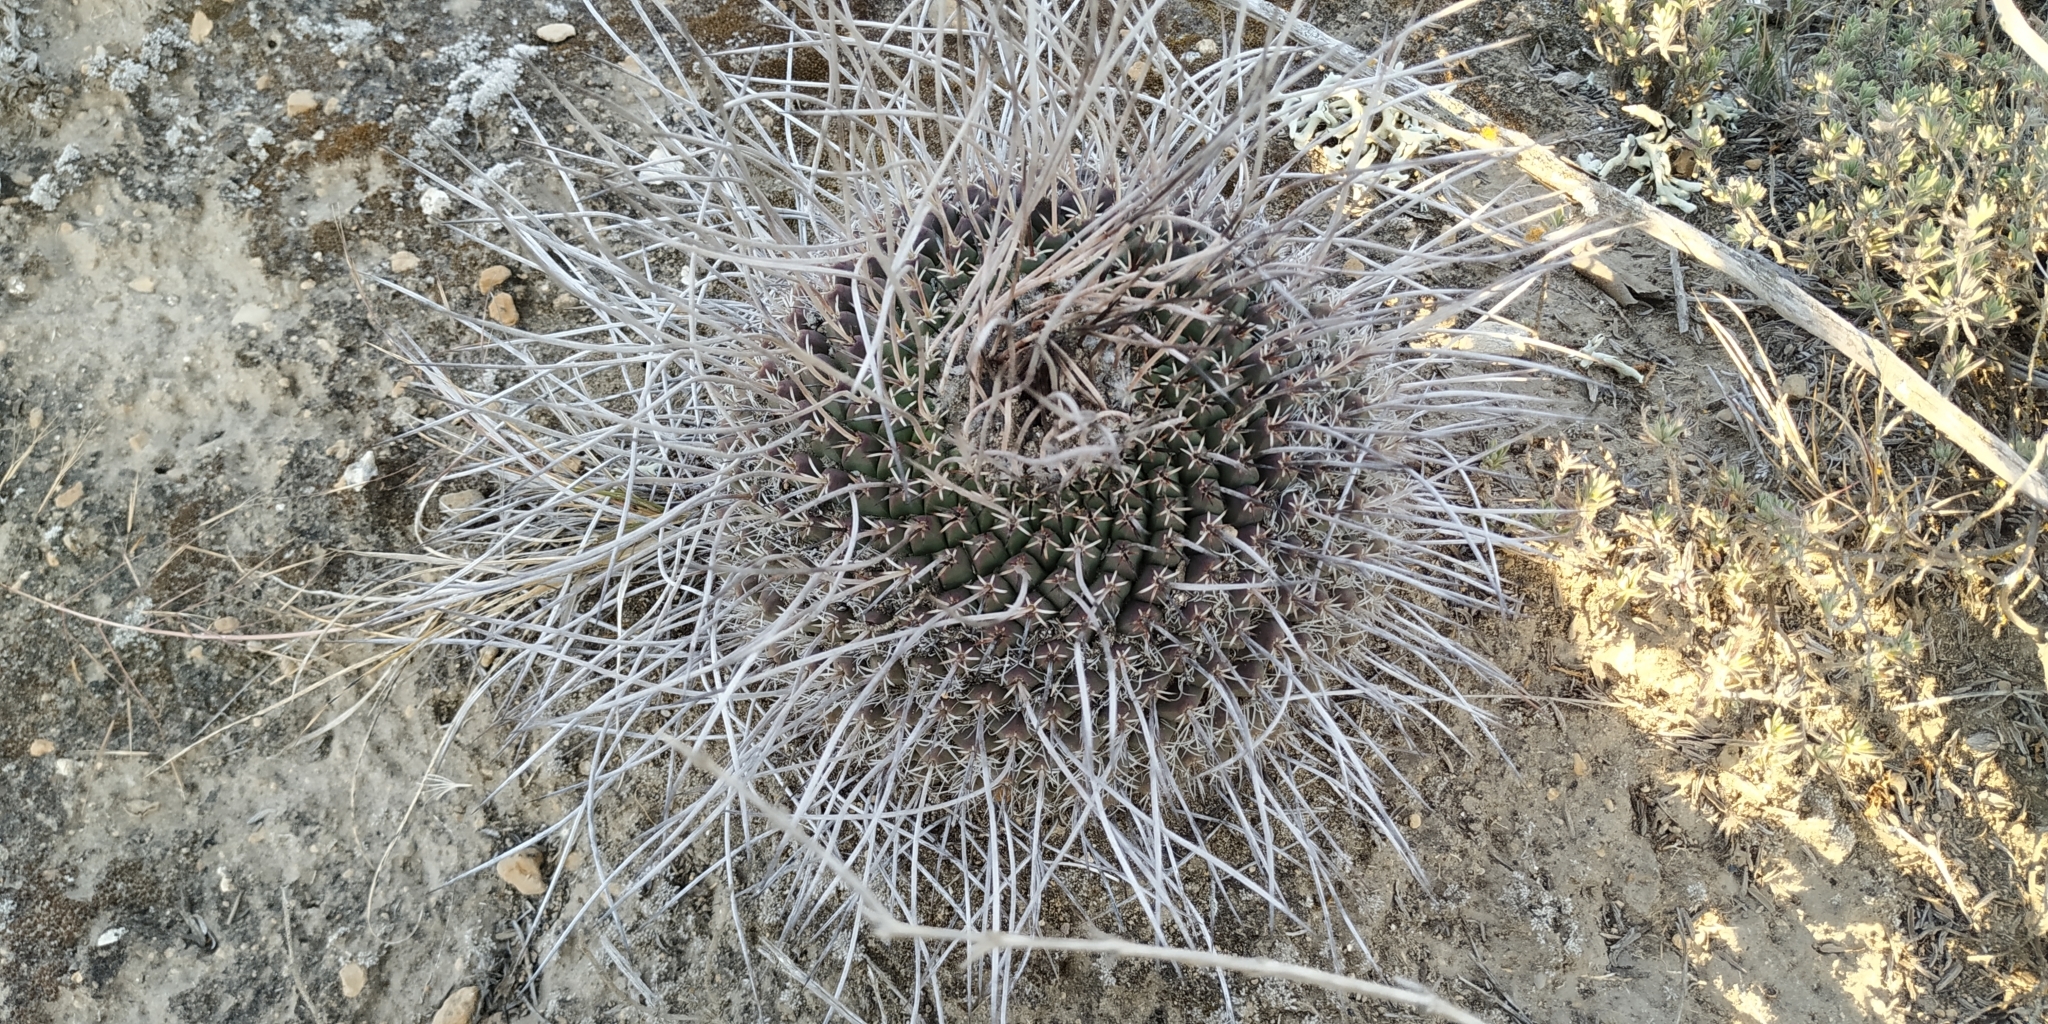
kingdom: Plantae
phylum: Tracheophyta
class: Magnoliopsida
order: Caryophyllales
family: Cactaceae
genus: Mammillaria
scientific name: Mammillaria mystax
